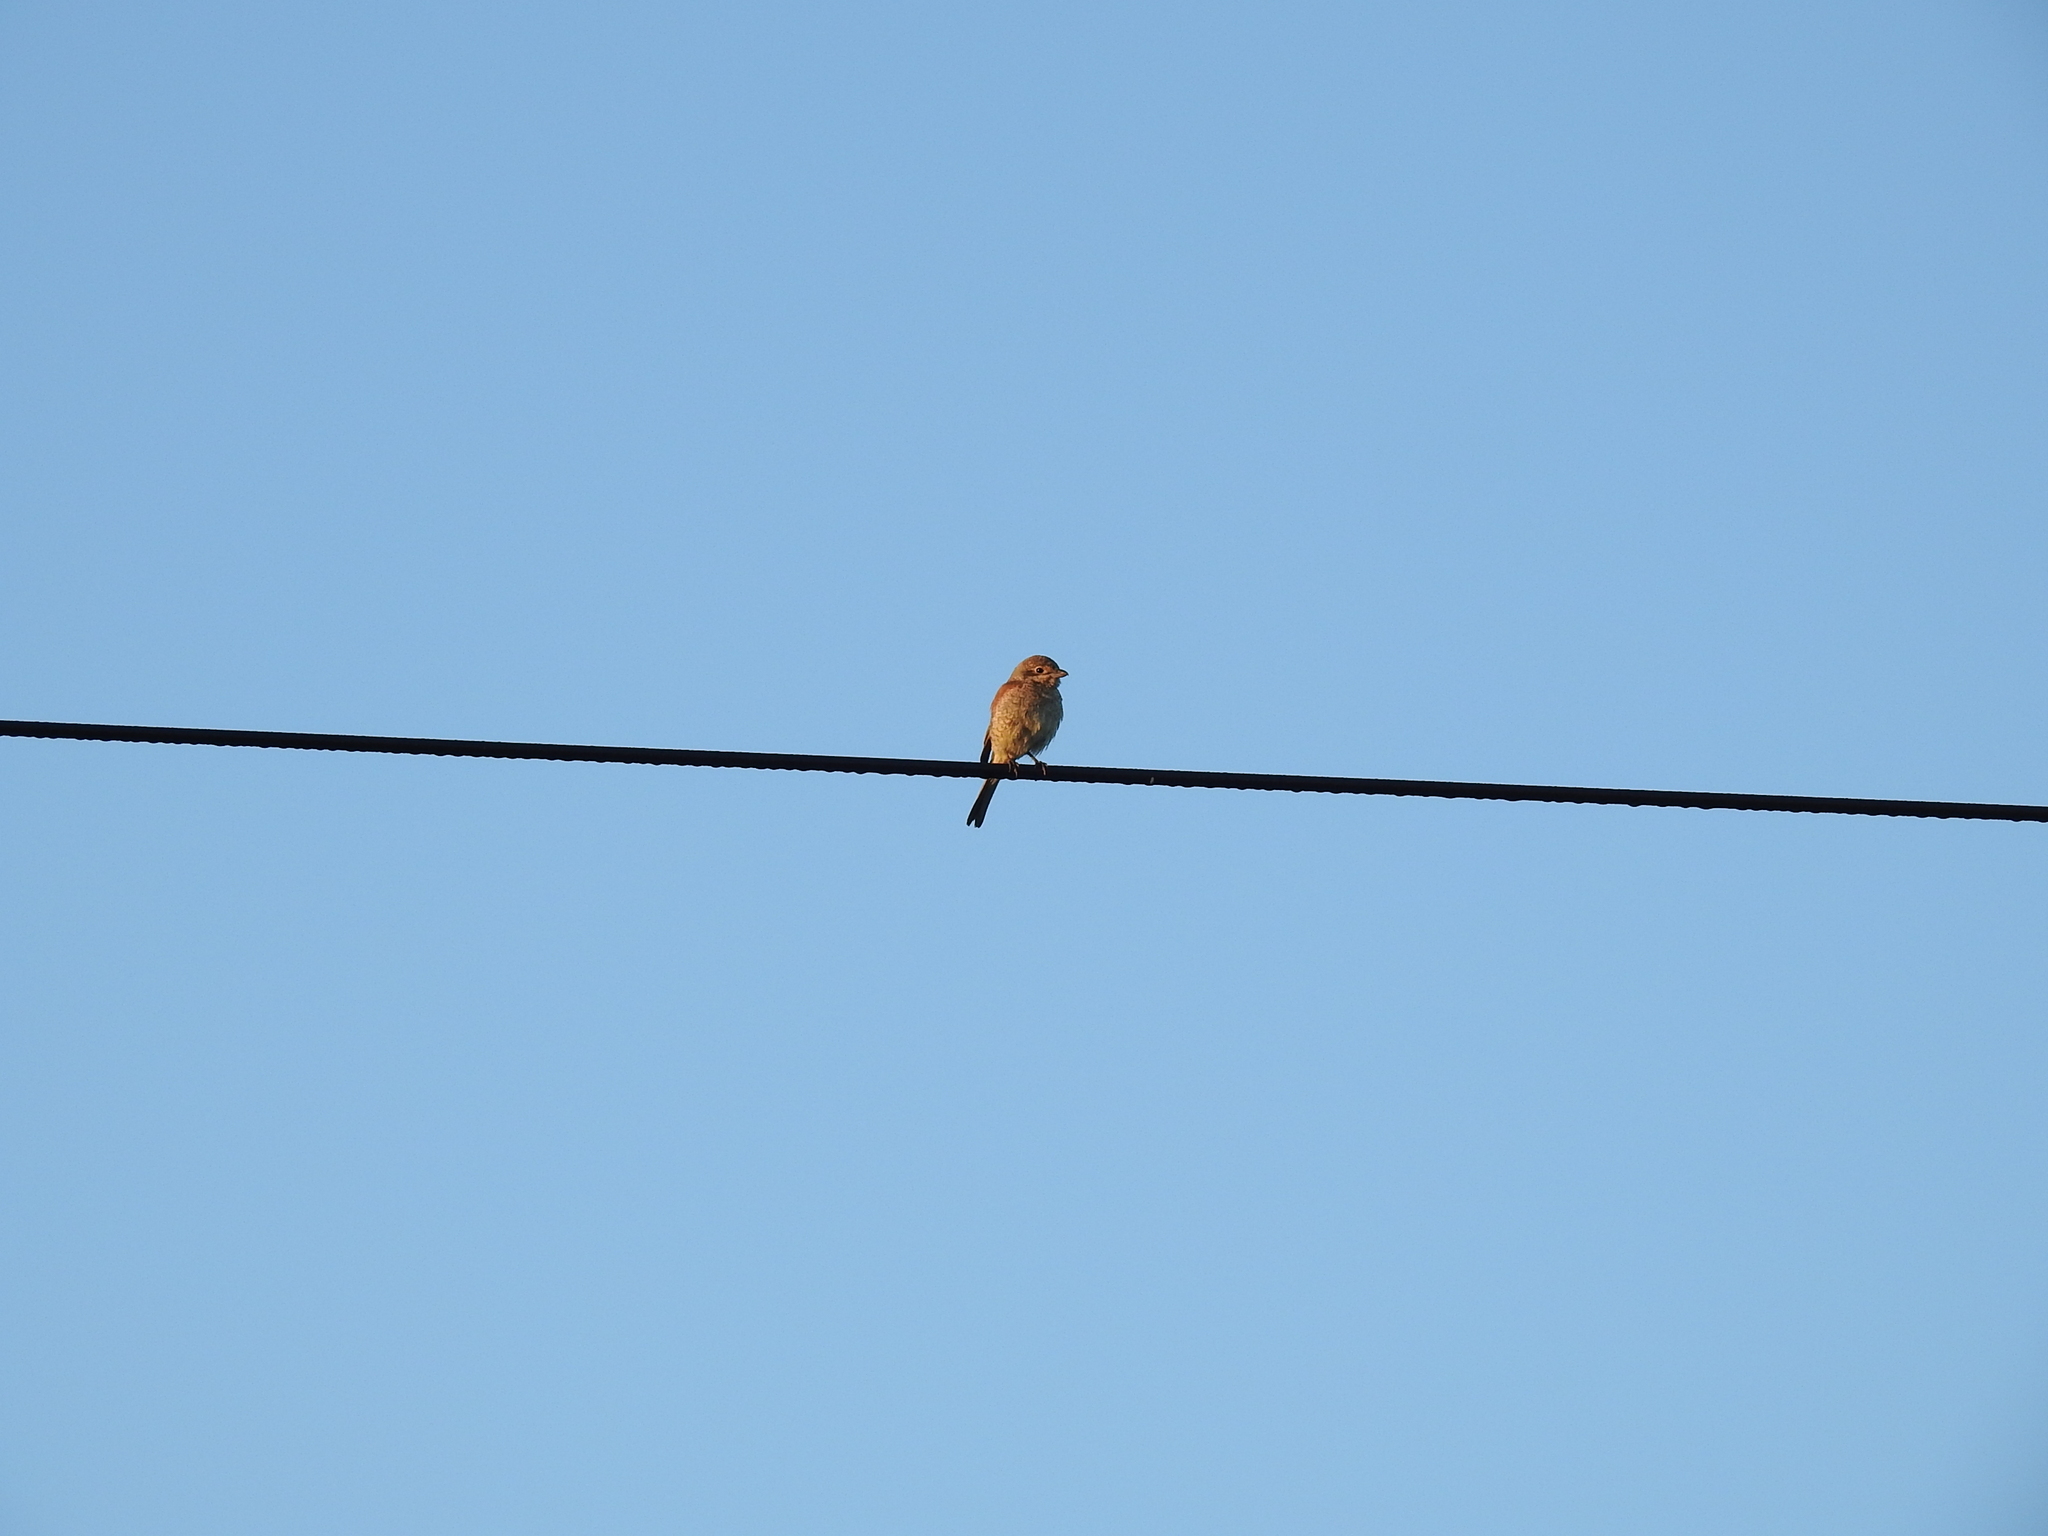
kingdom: Animalia
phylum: Chordata
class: Aves
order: Passeriformes
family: Laniidae
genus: Lanius
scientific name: Lanius collurio
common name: Red-backed shrike
